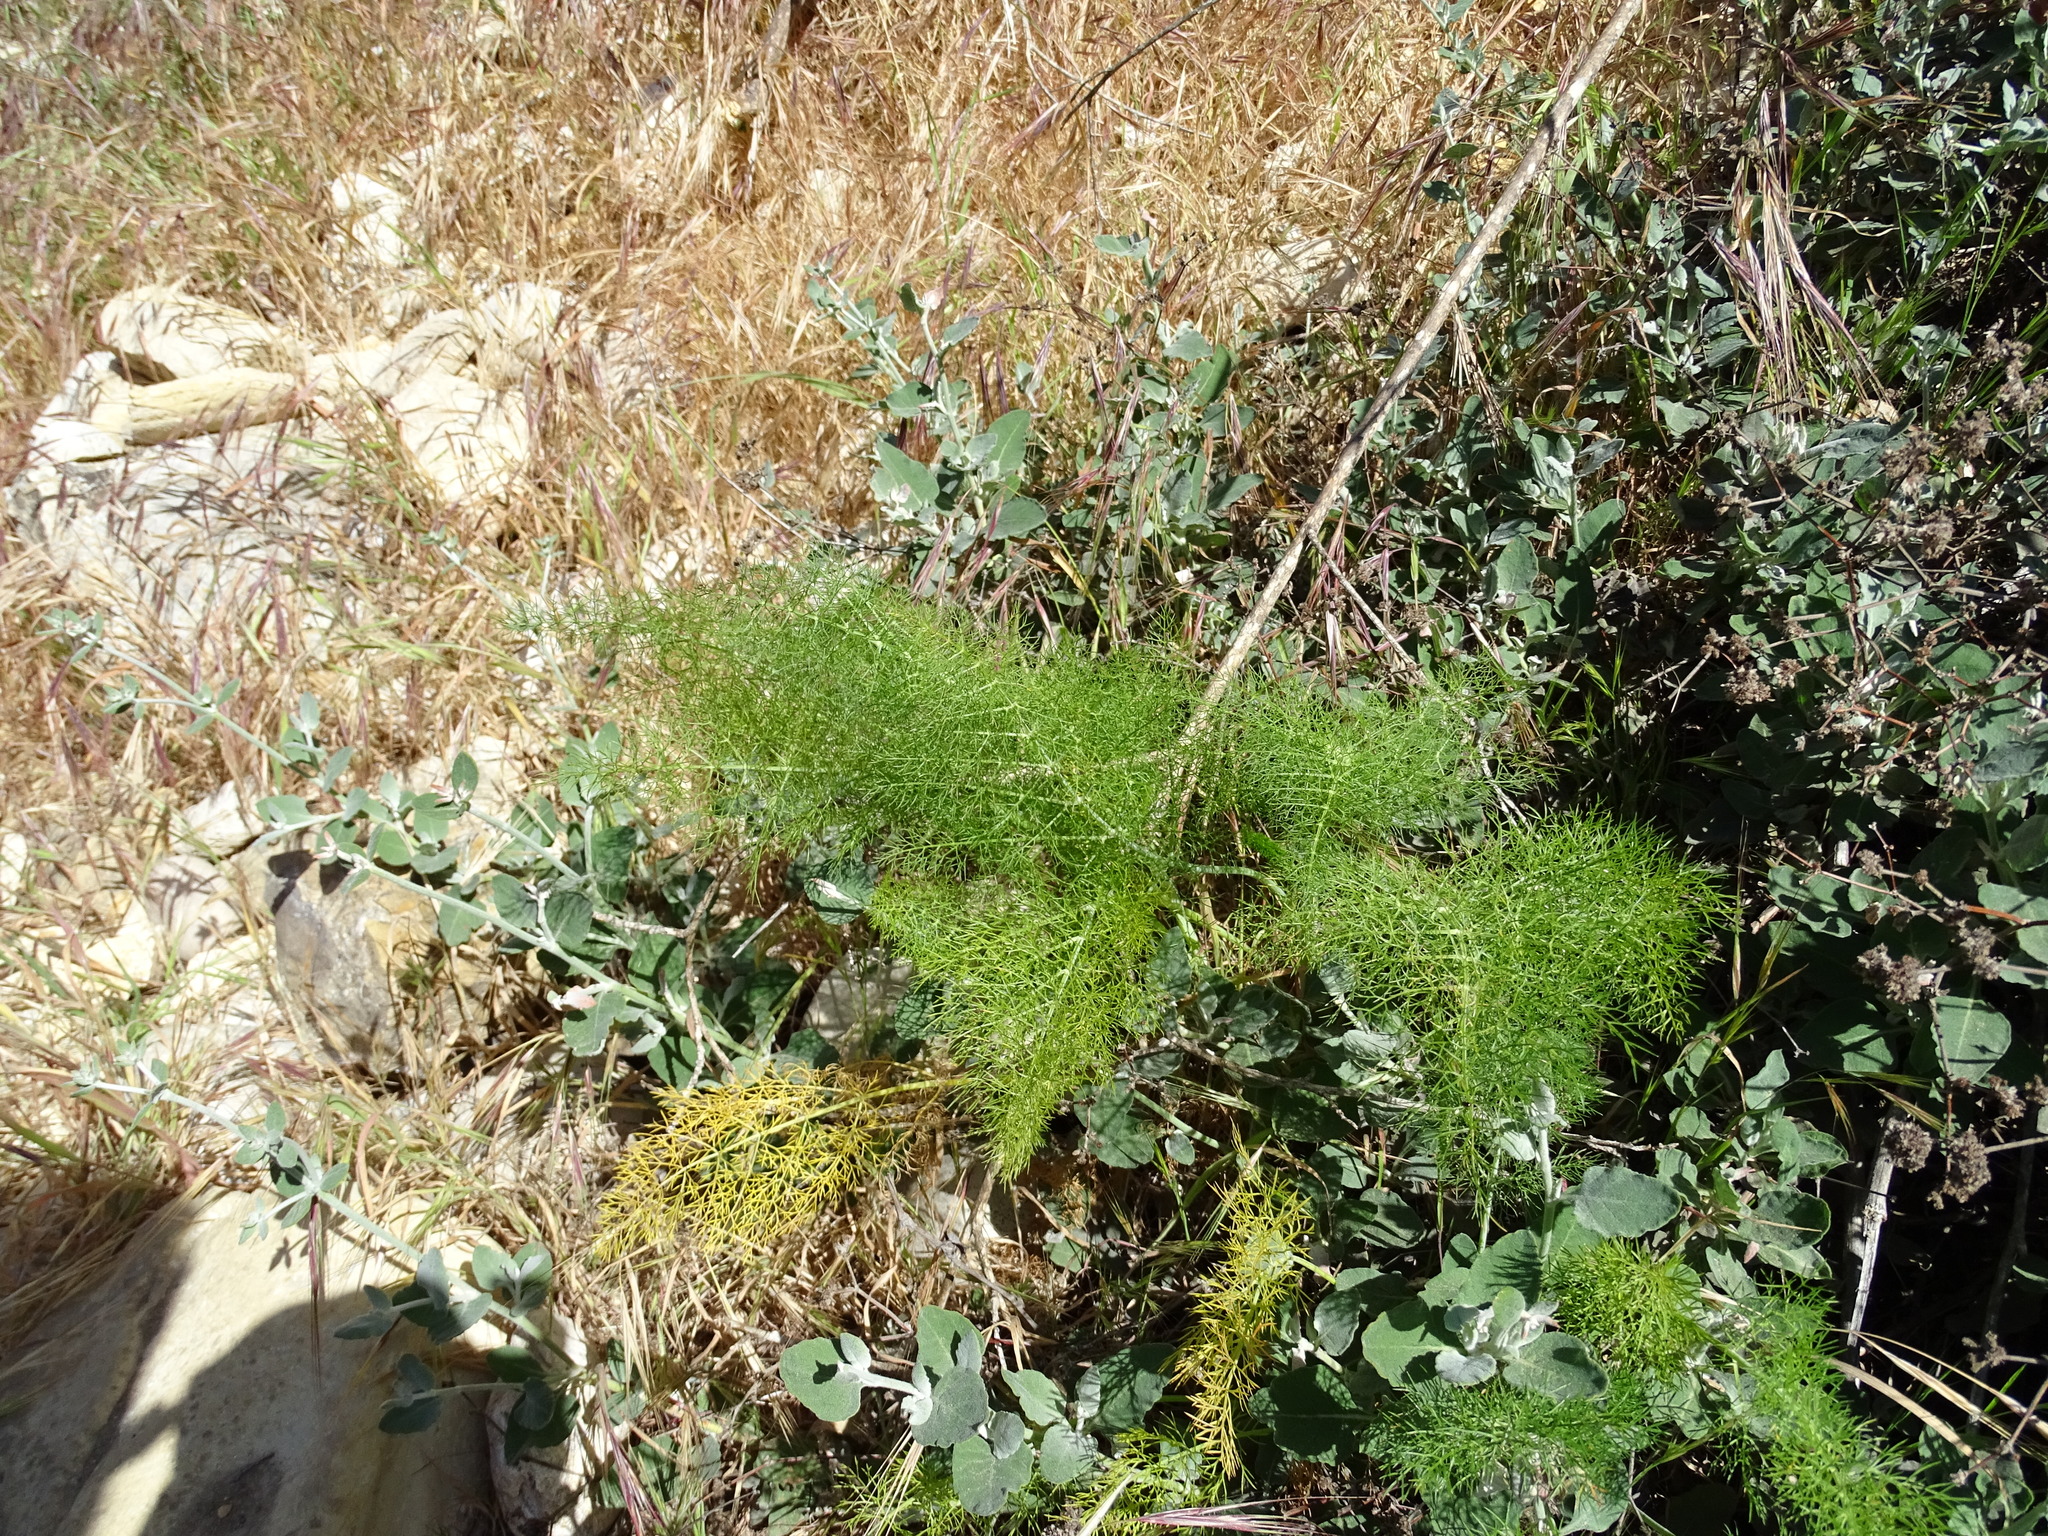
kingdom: Plantae
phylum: Tracheophyta
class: Magnoliopsida
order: Apiales
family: Apiaceae
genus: Foeniculum
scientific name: Foeniculum vulgare
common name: Fennel
